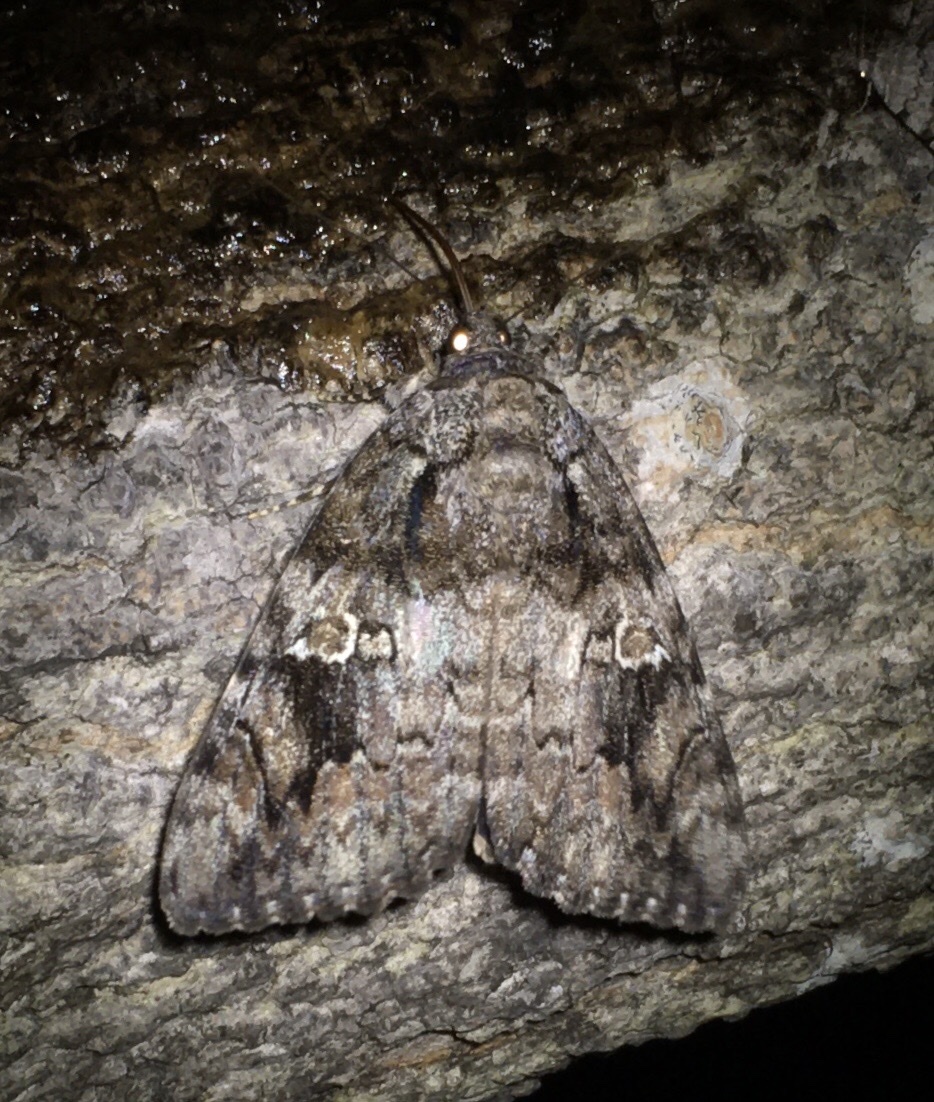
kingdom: Animalia
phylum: Arthropoda
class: Insecta
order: Lepidoptera
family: Erebidae
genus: Catocala
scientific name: Catocala ilia
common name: Ilia underwing
